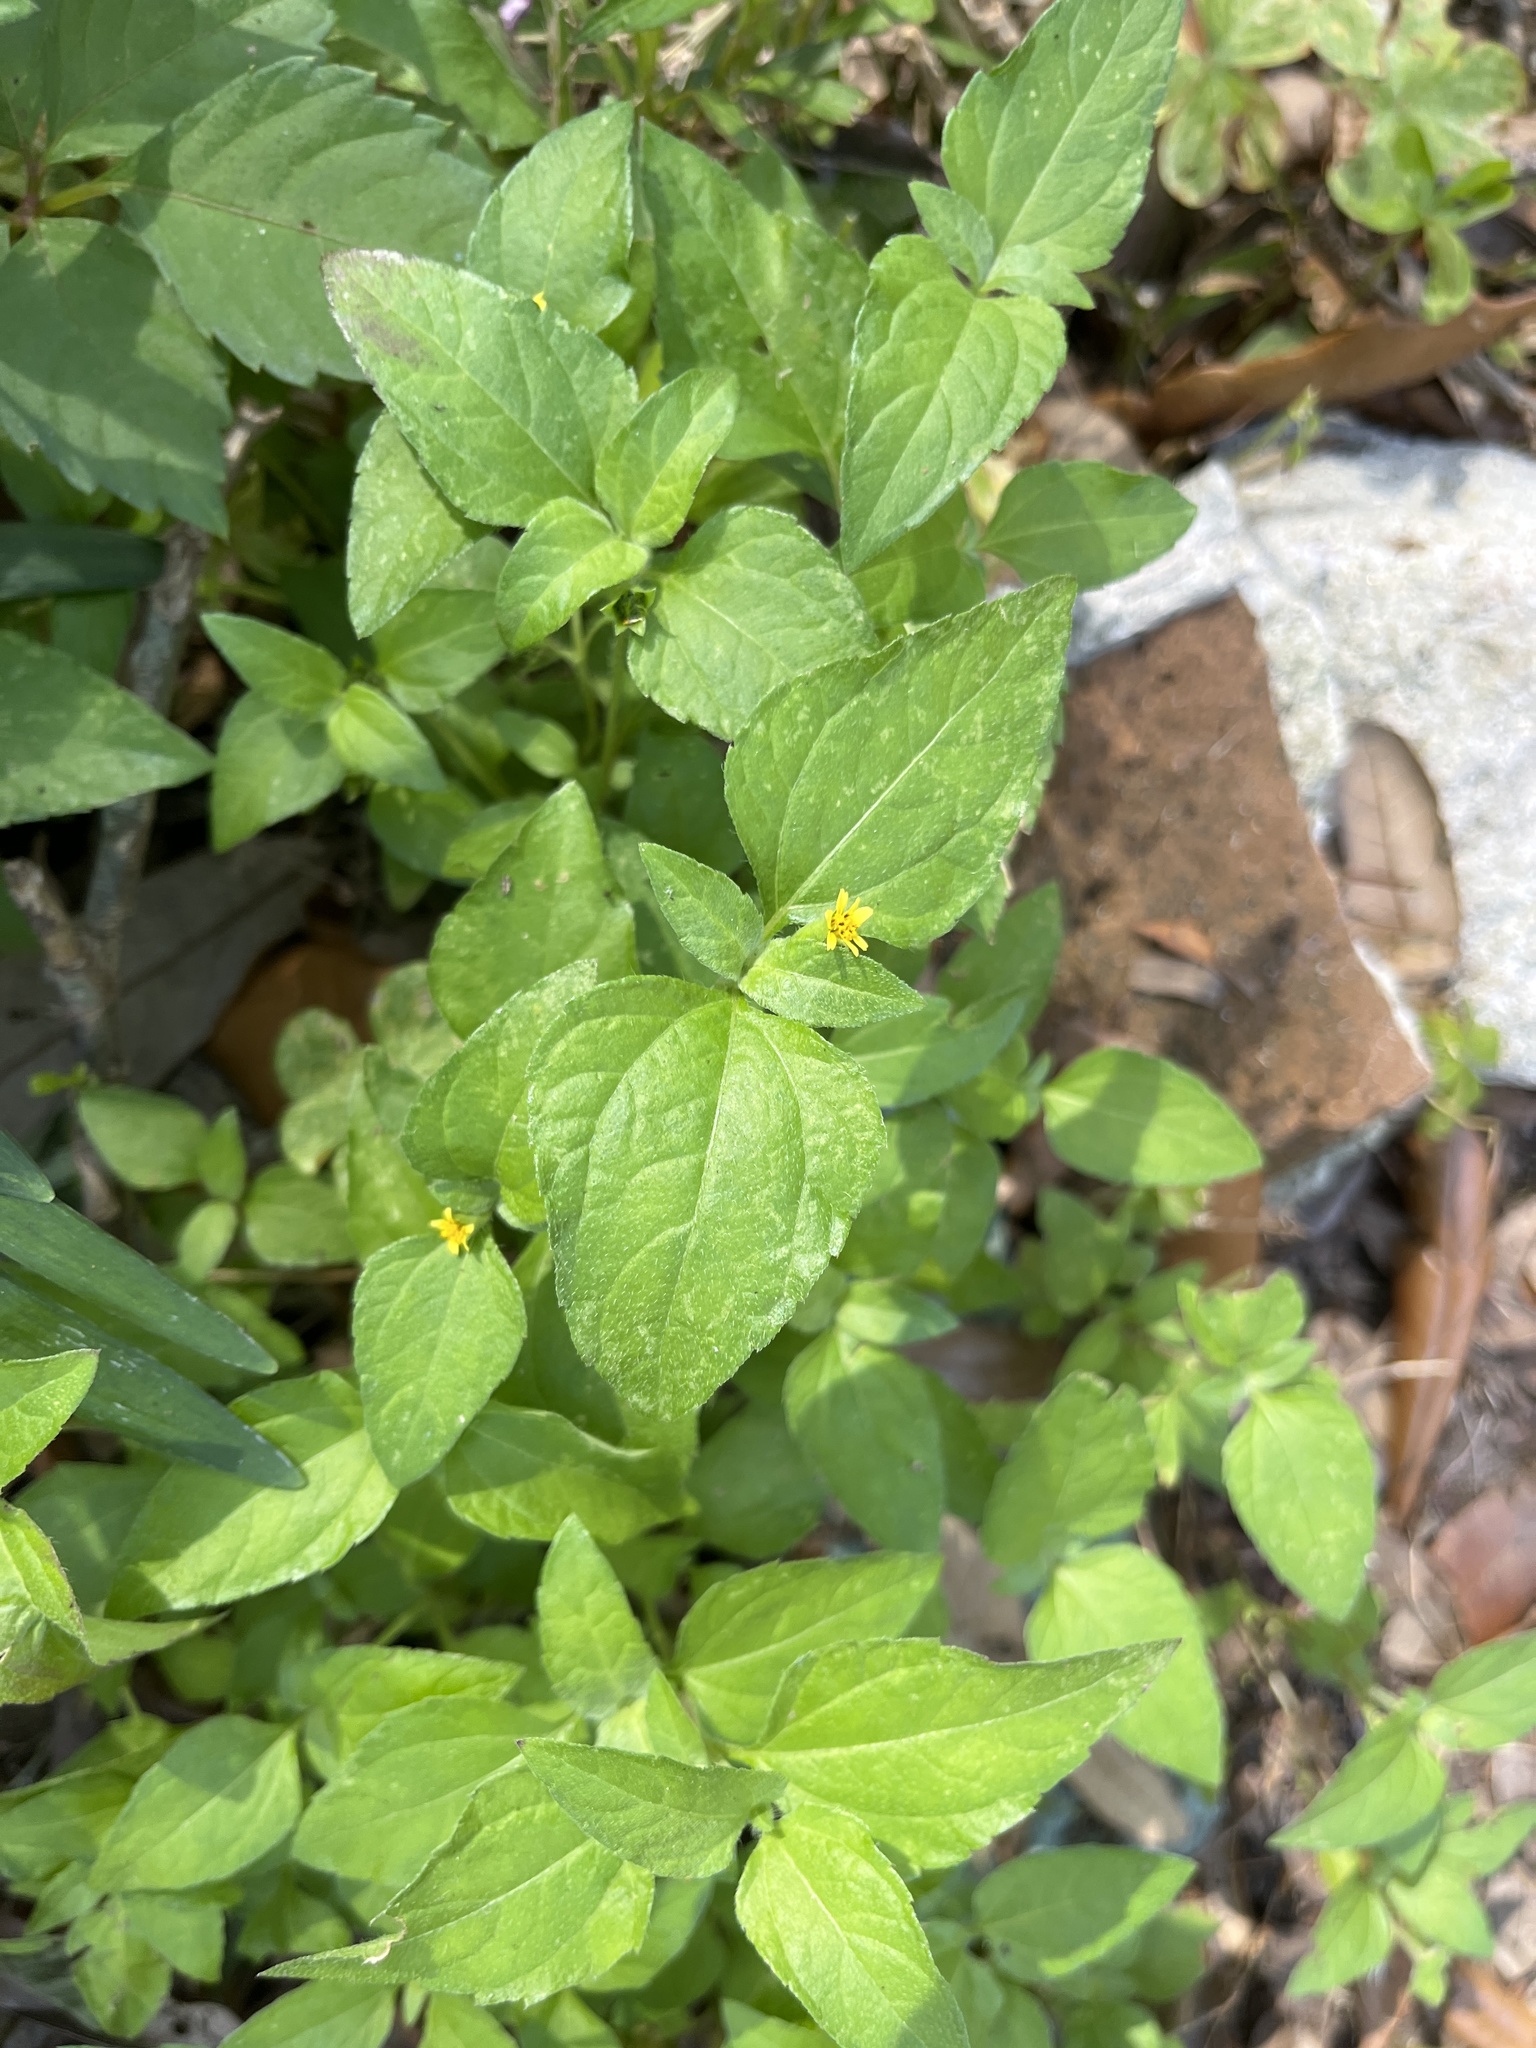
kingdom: Plantae
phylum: Tracheophyta
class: Magnoliopsida
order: Asterales
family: Asteraceae
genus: Calyptocarpus
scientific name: Calyptocarpus vialis
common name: Straggler daisy
